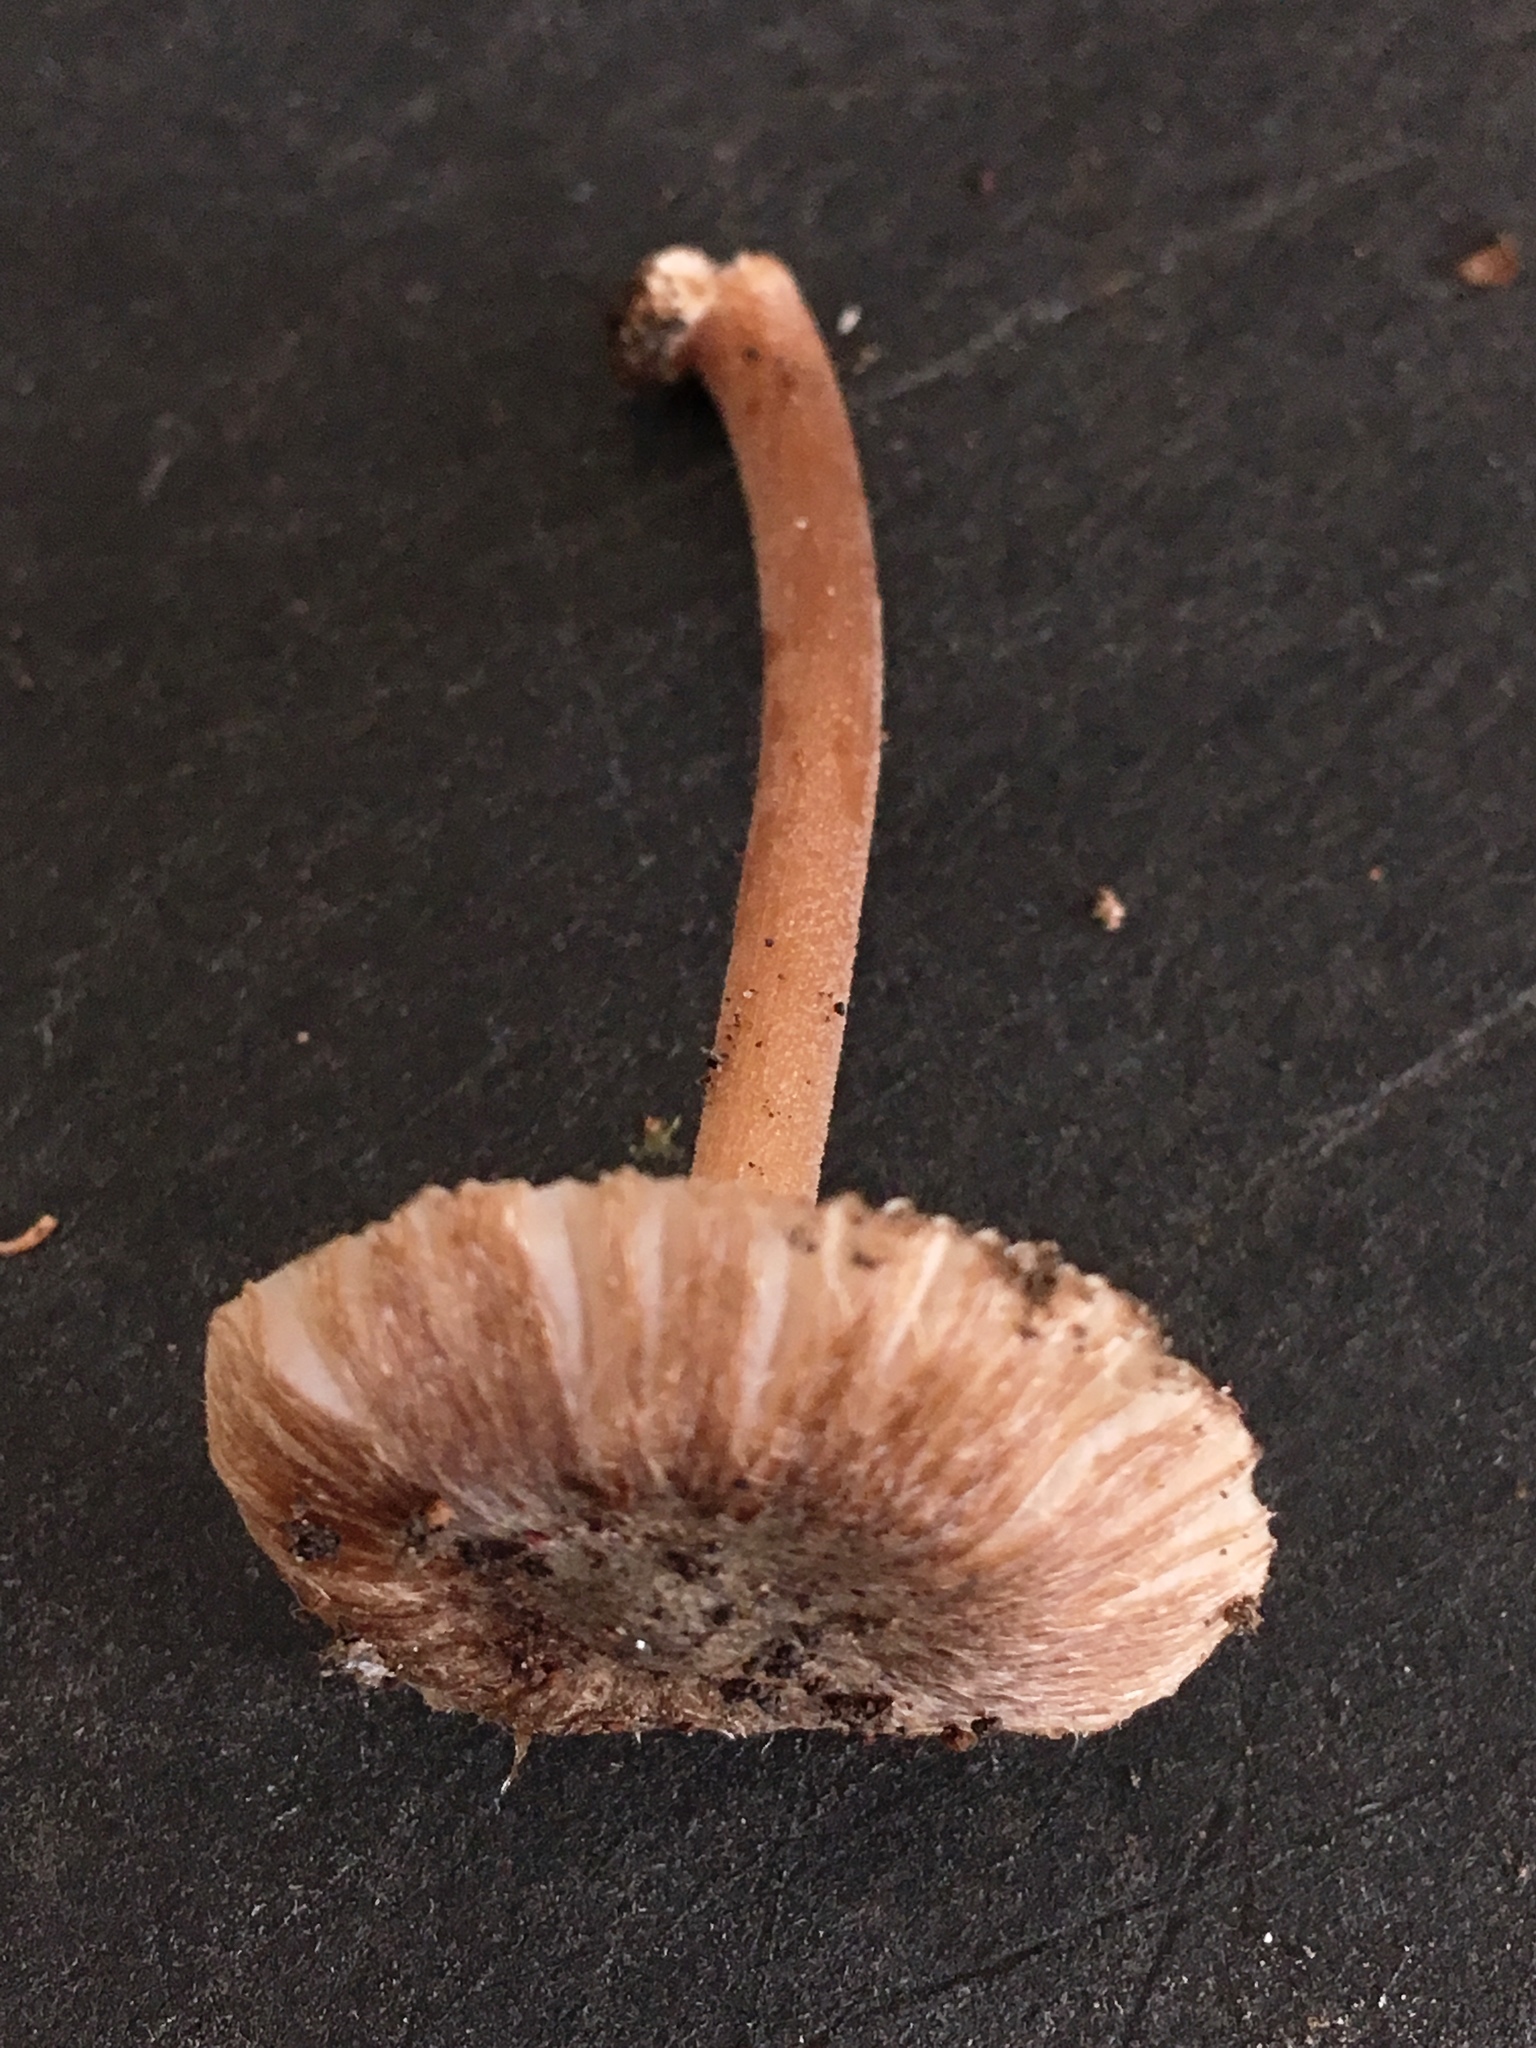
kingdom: Fungi
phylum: Basidiomycota
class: Agaricomycetes
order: Agaricales
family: Inocybaceae
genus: Inocybe
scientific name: Inocybe asterospora
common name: Star fibrecap
